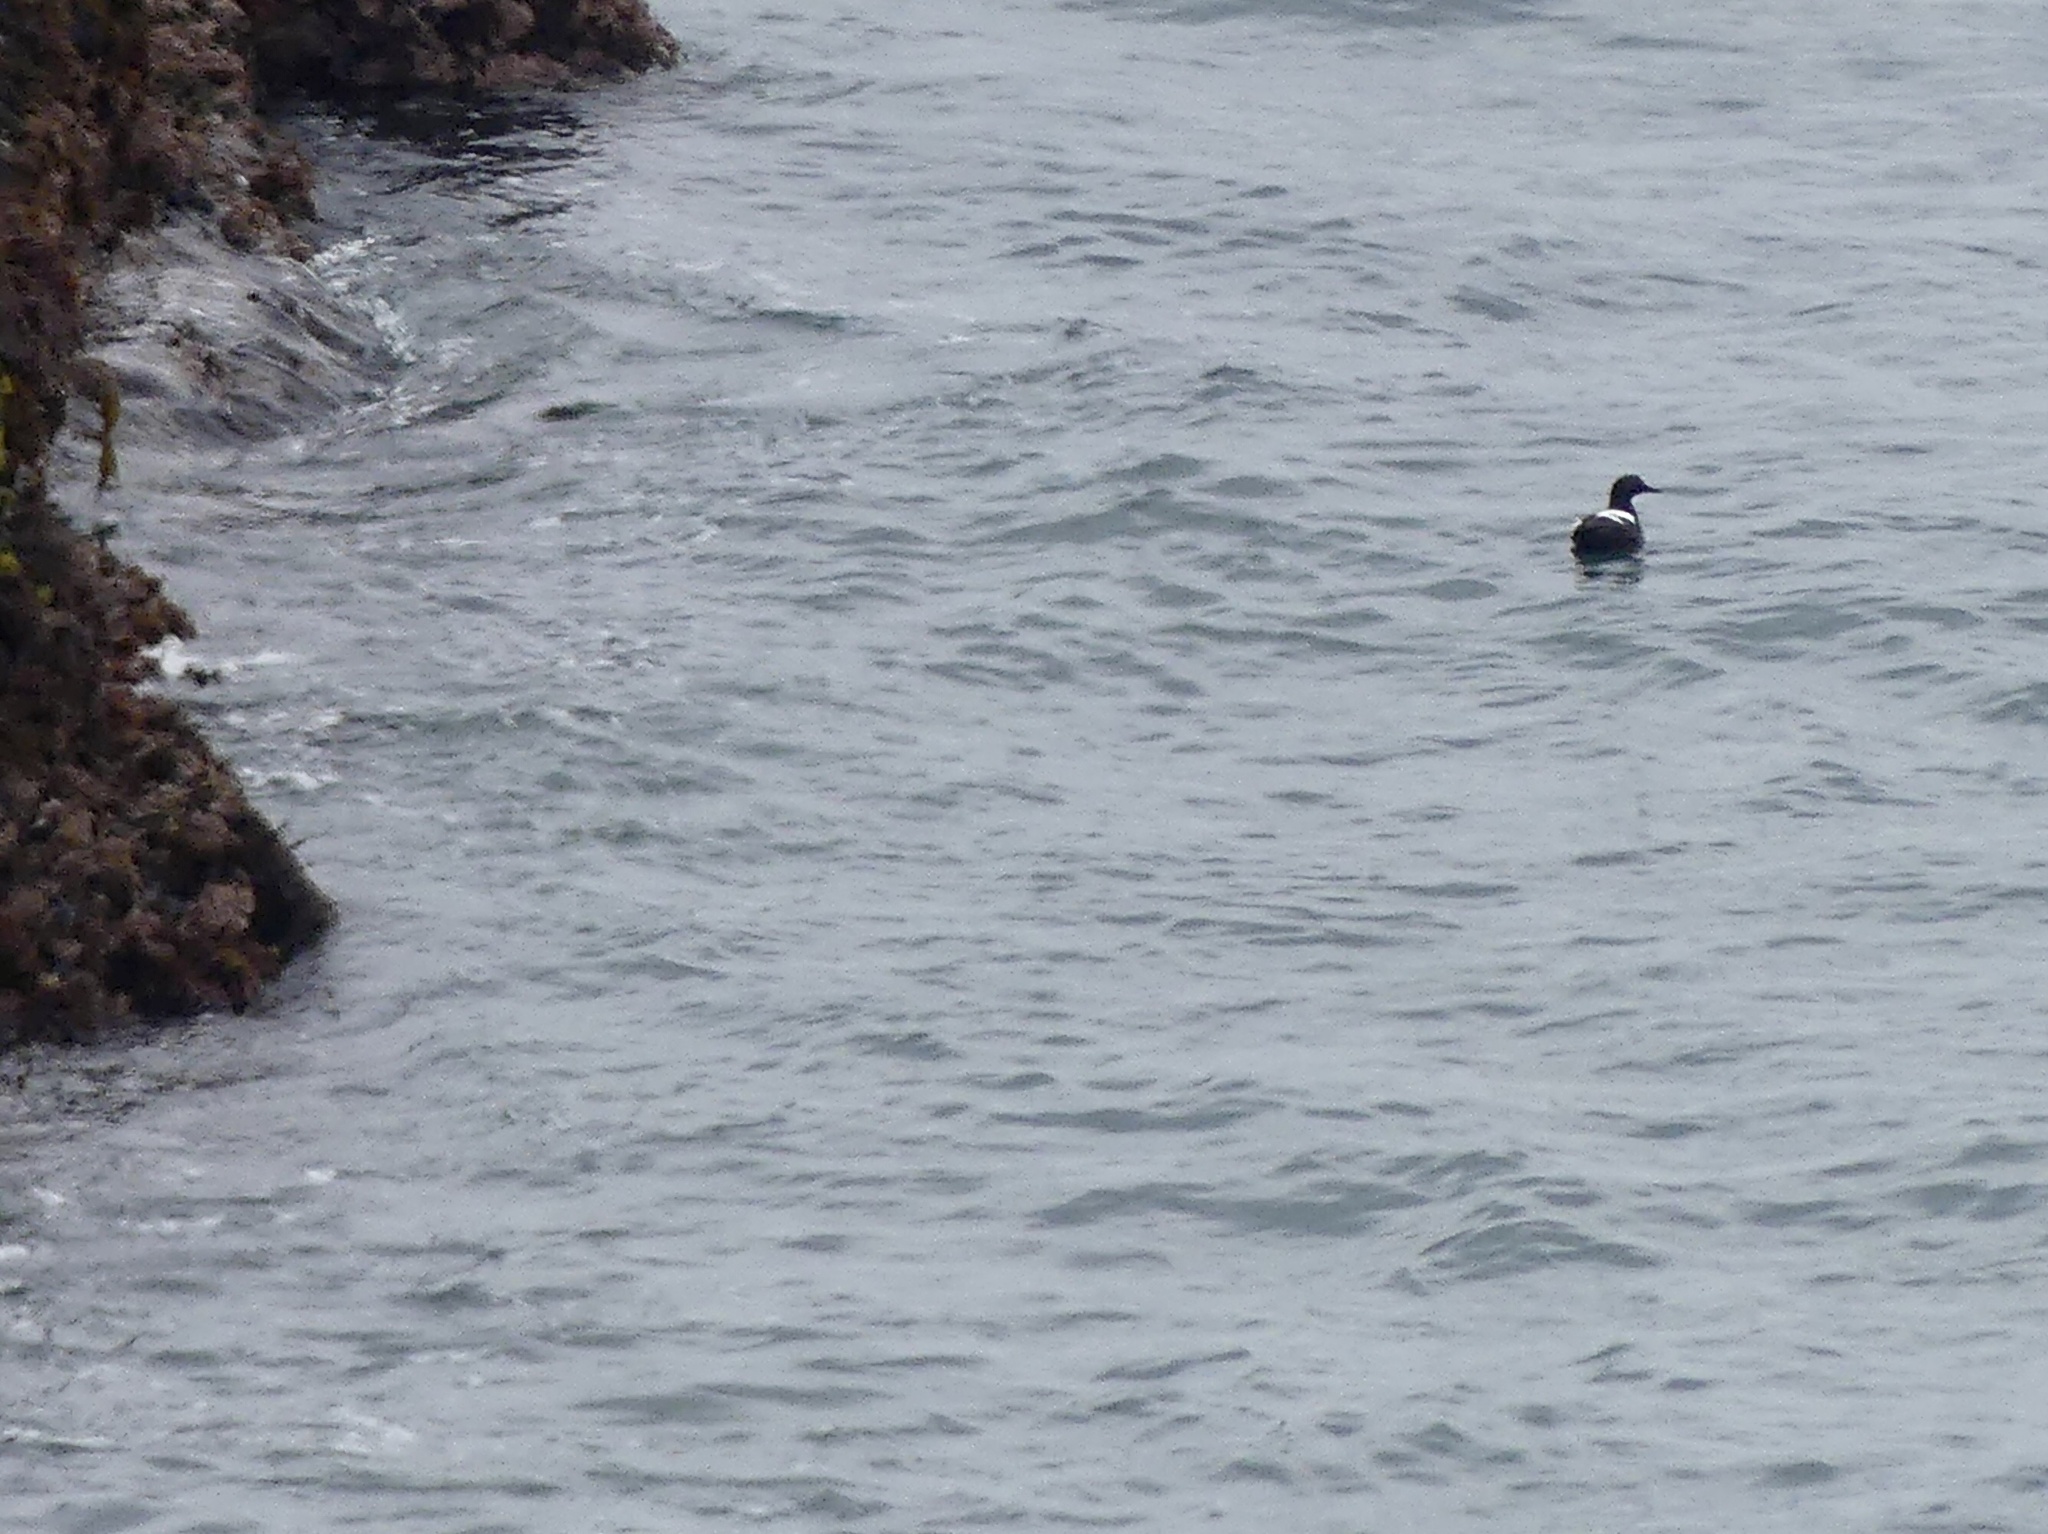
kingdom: Animalia
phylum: Chordata
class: Aves
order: Charadriiformes
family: Alcidae
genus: Cepphus
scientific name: Cepphus columba
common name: Pigeon guillemot
